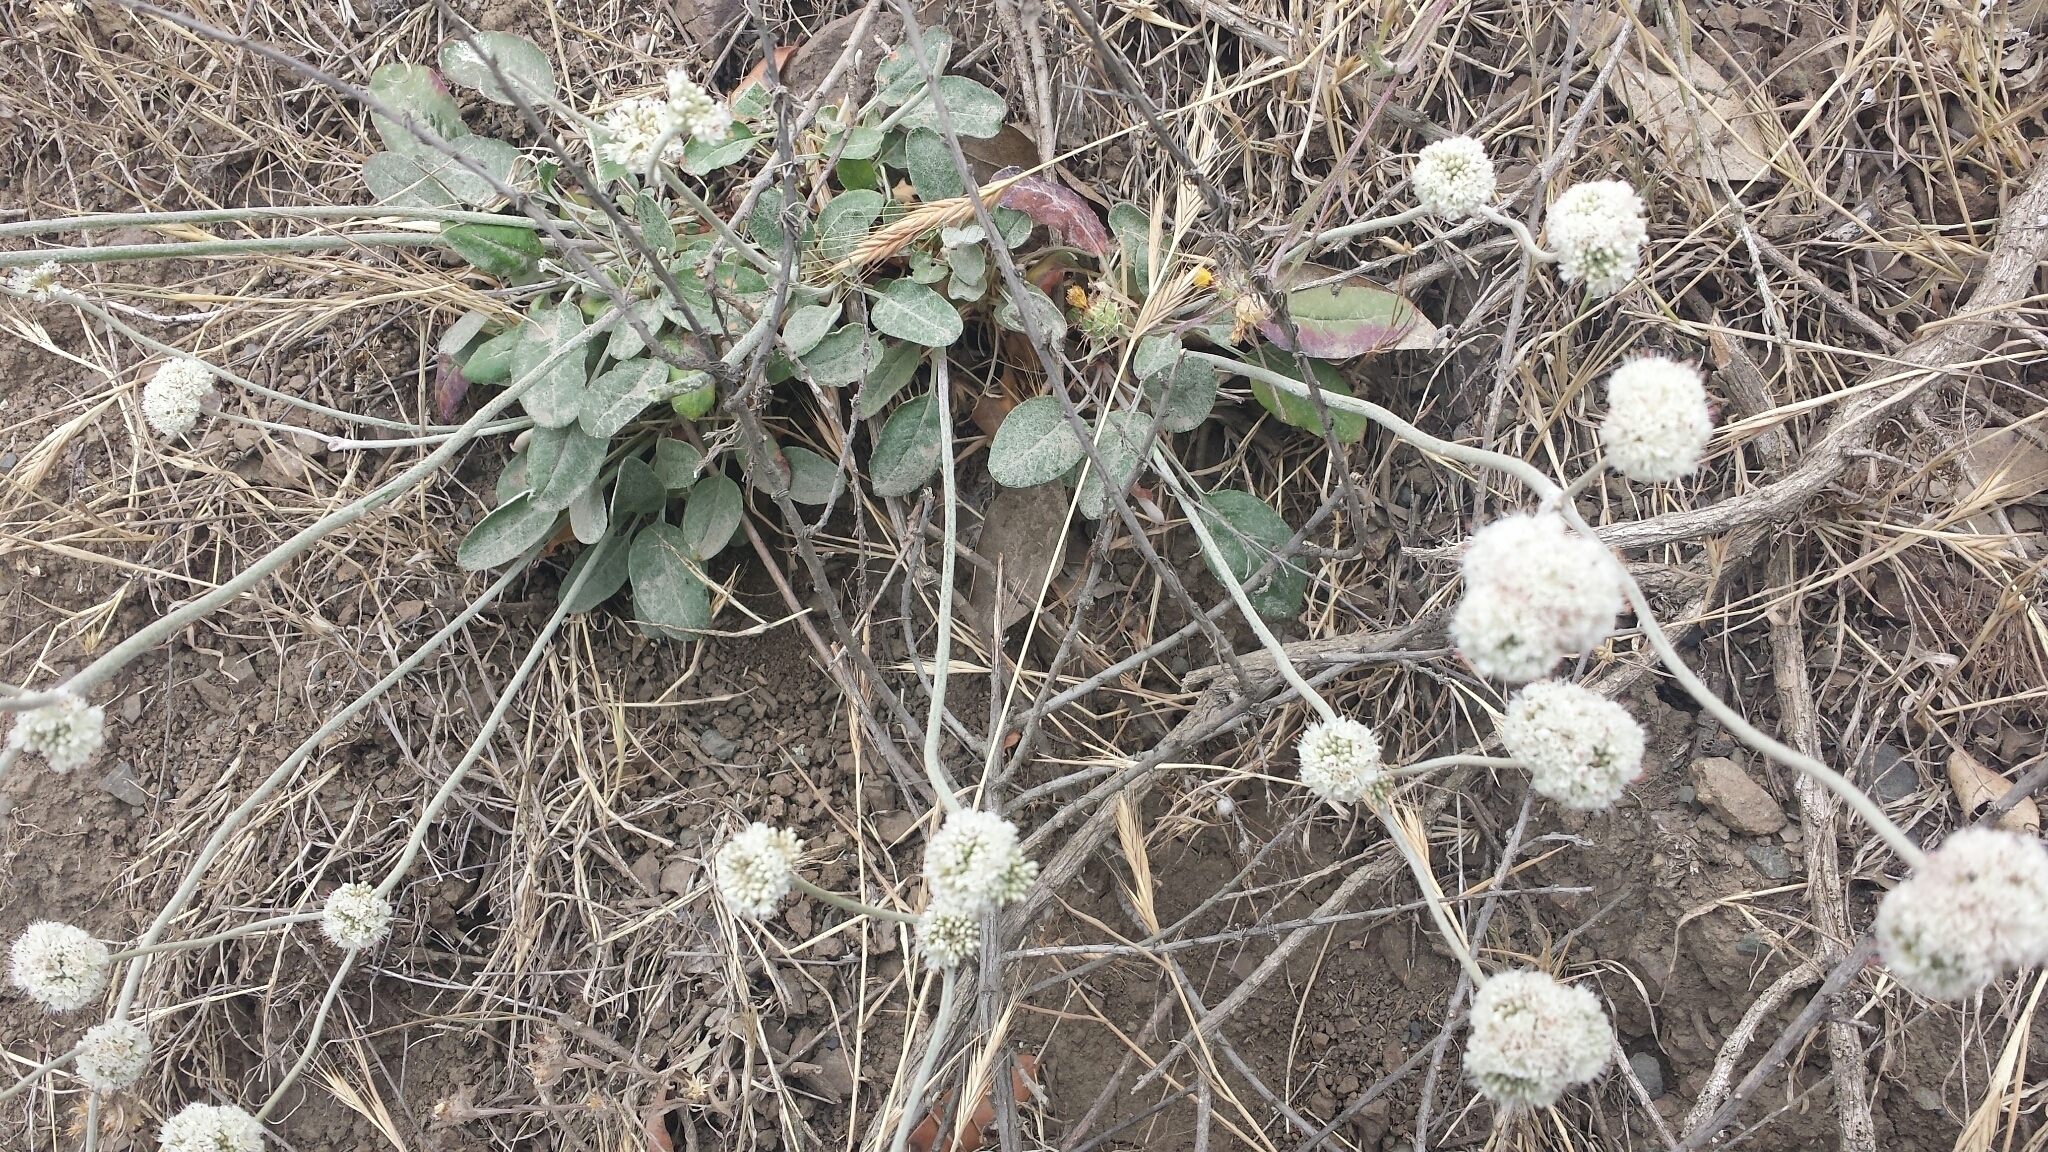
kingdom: Plantae
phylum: Tracheophyta
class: Magnoliopsida
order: Caryophyllales
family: Polygonaceae
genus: Eriogonum
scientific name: Eriogonum latifolium
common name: Seaside wild buckwheat
